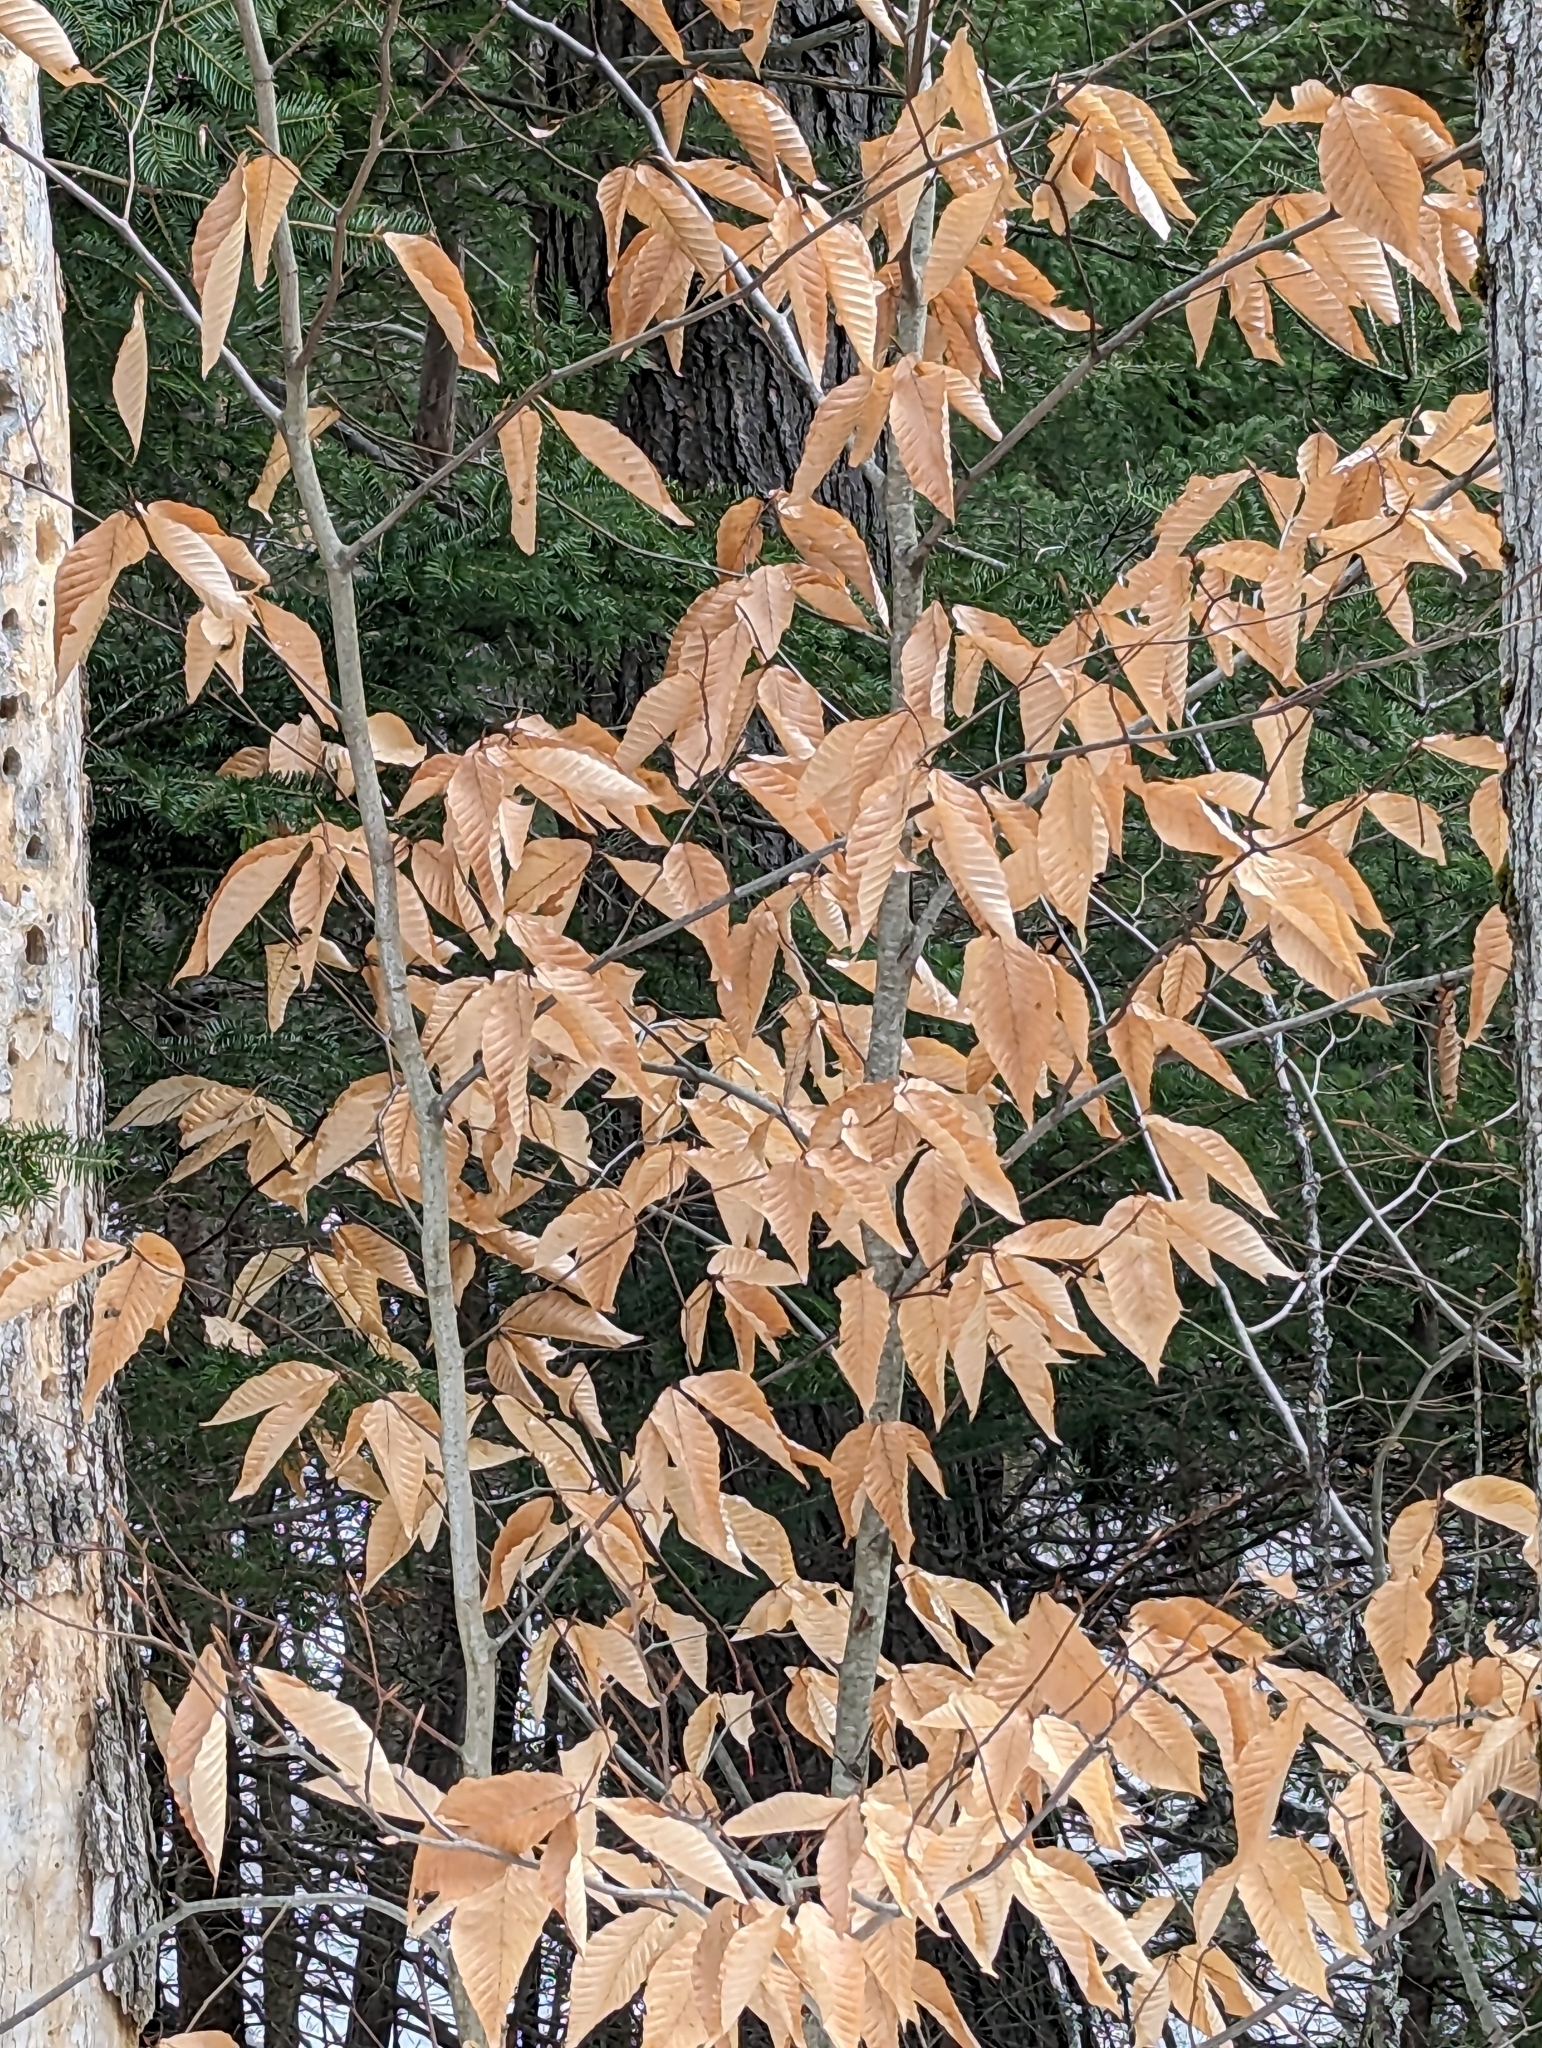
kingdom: Plantae
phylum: Tracheophyta
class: Magnoliopsida
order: Fagales
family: Fagaceae
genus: Fagus
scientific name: Fagus grandifolia
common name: American beech
